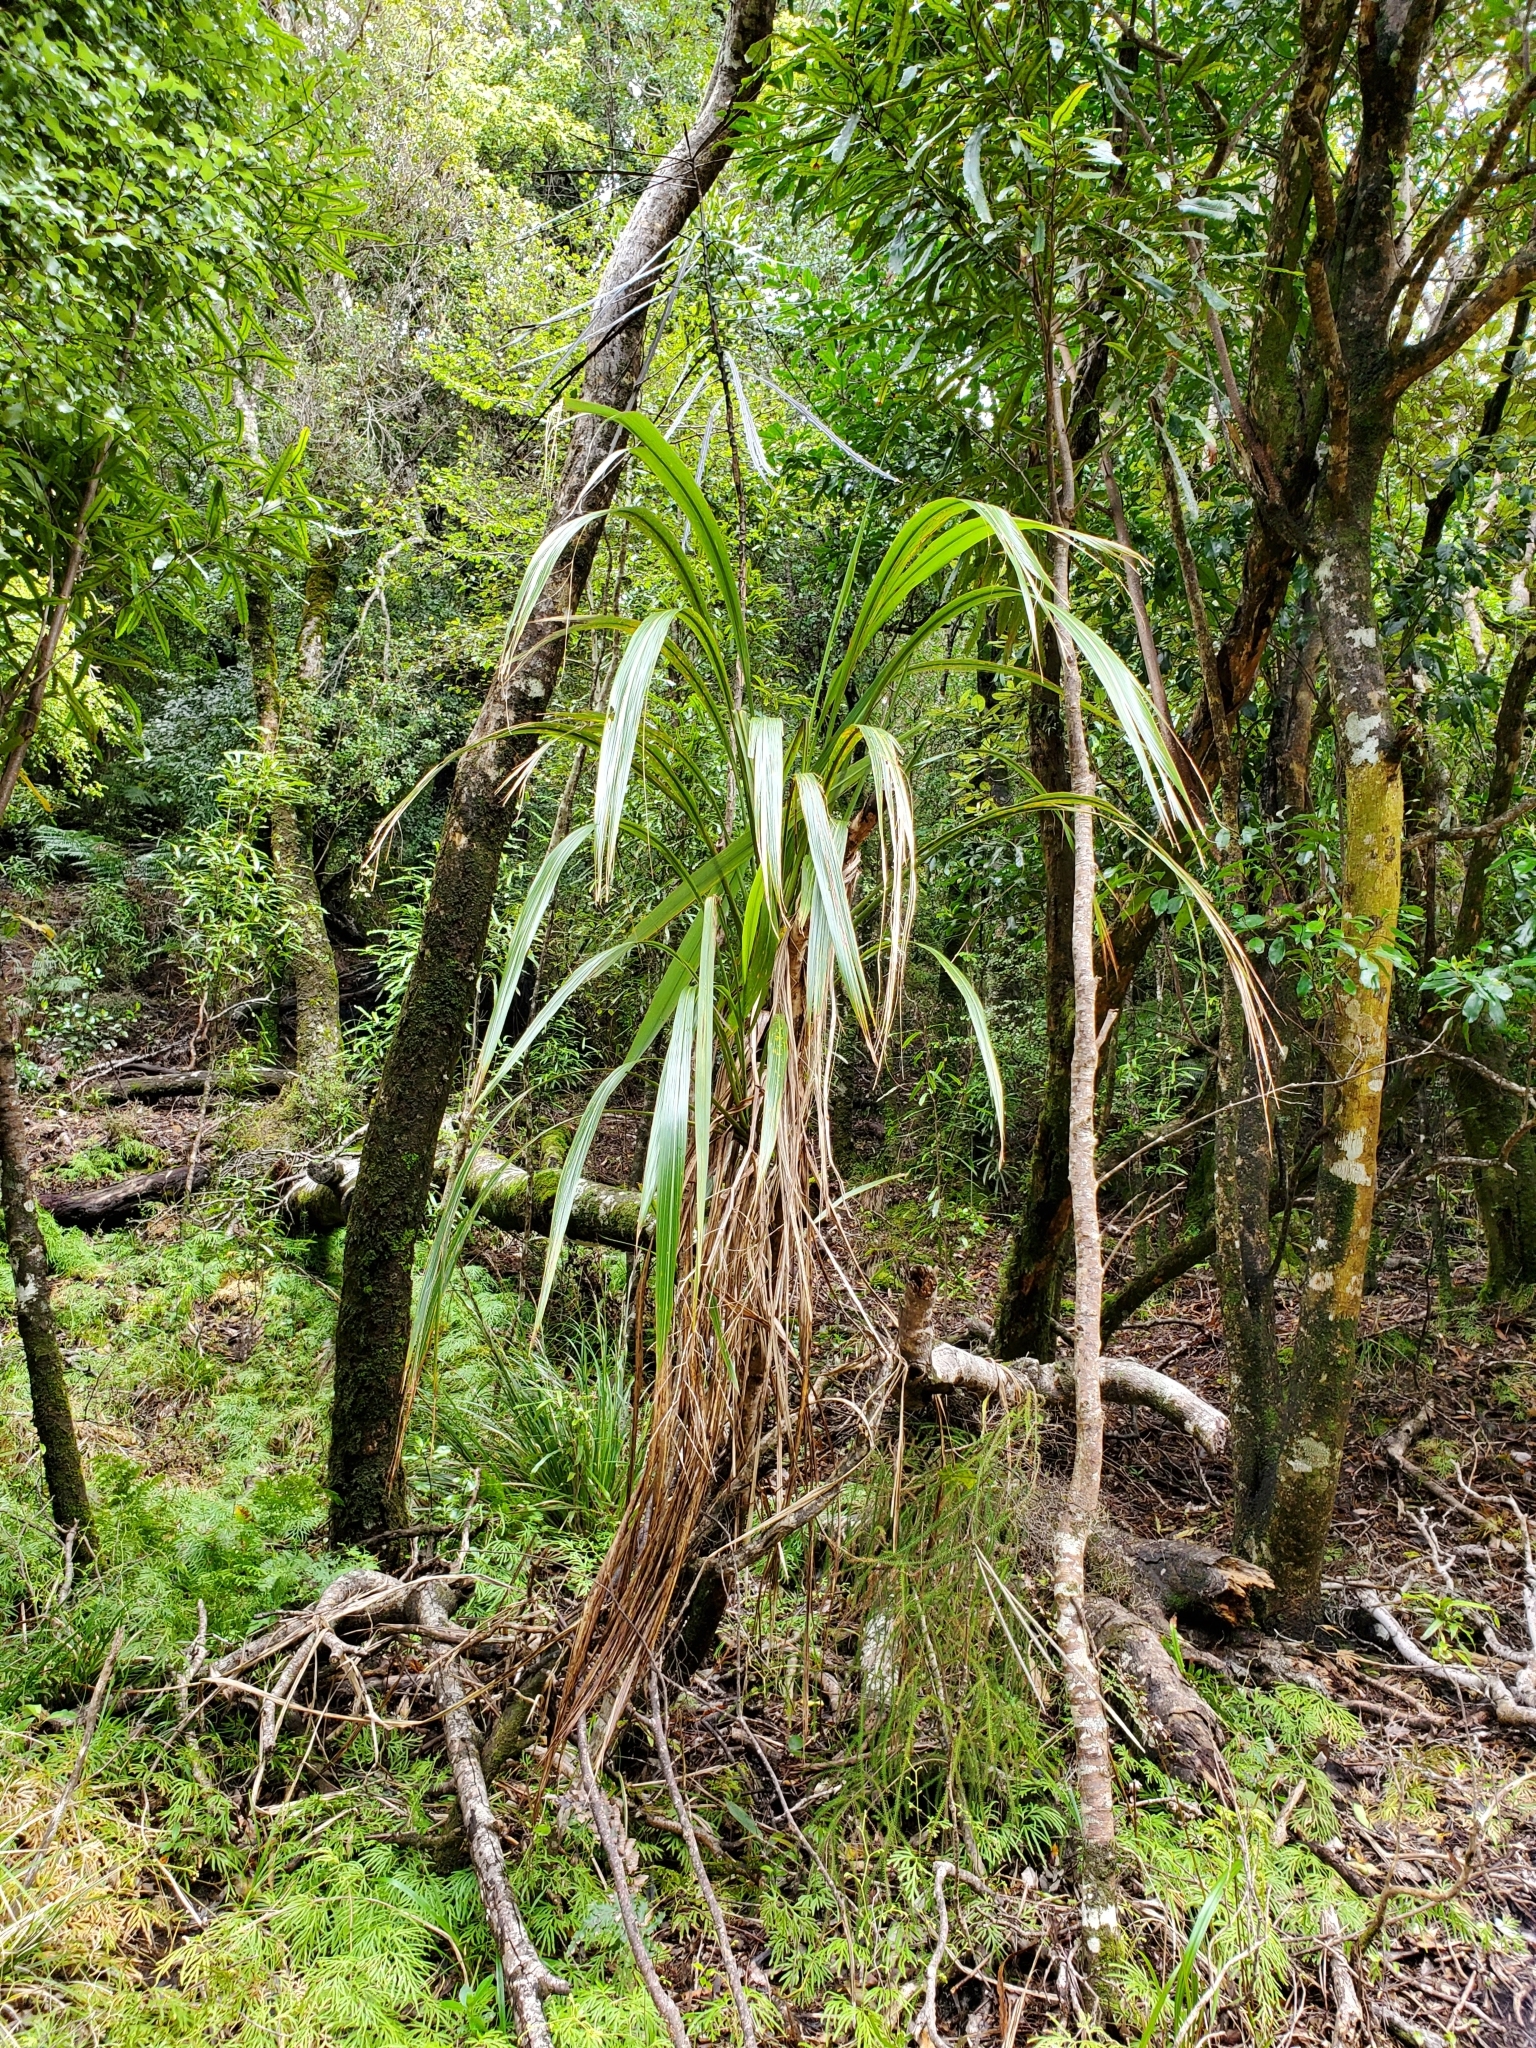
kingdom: Plantae
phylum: Tracheophyta
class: Liliopsida
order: Asparagales
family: Asparagaceae
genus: Cordyline
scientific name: Cordyline banksii
